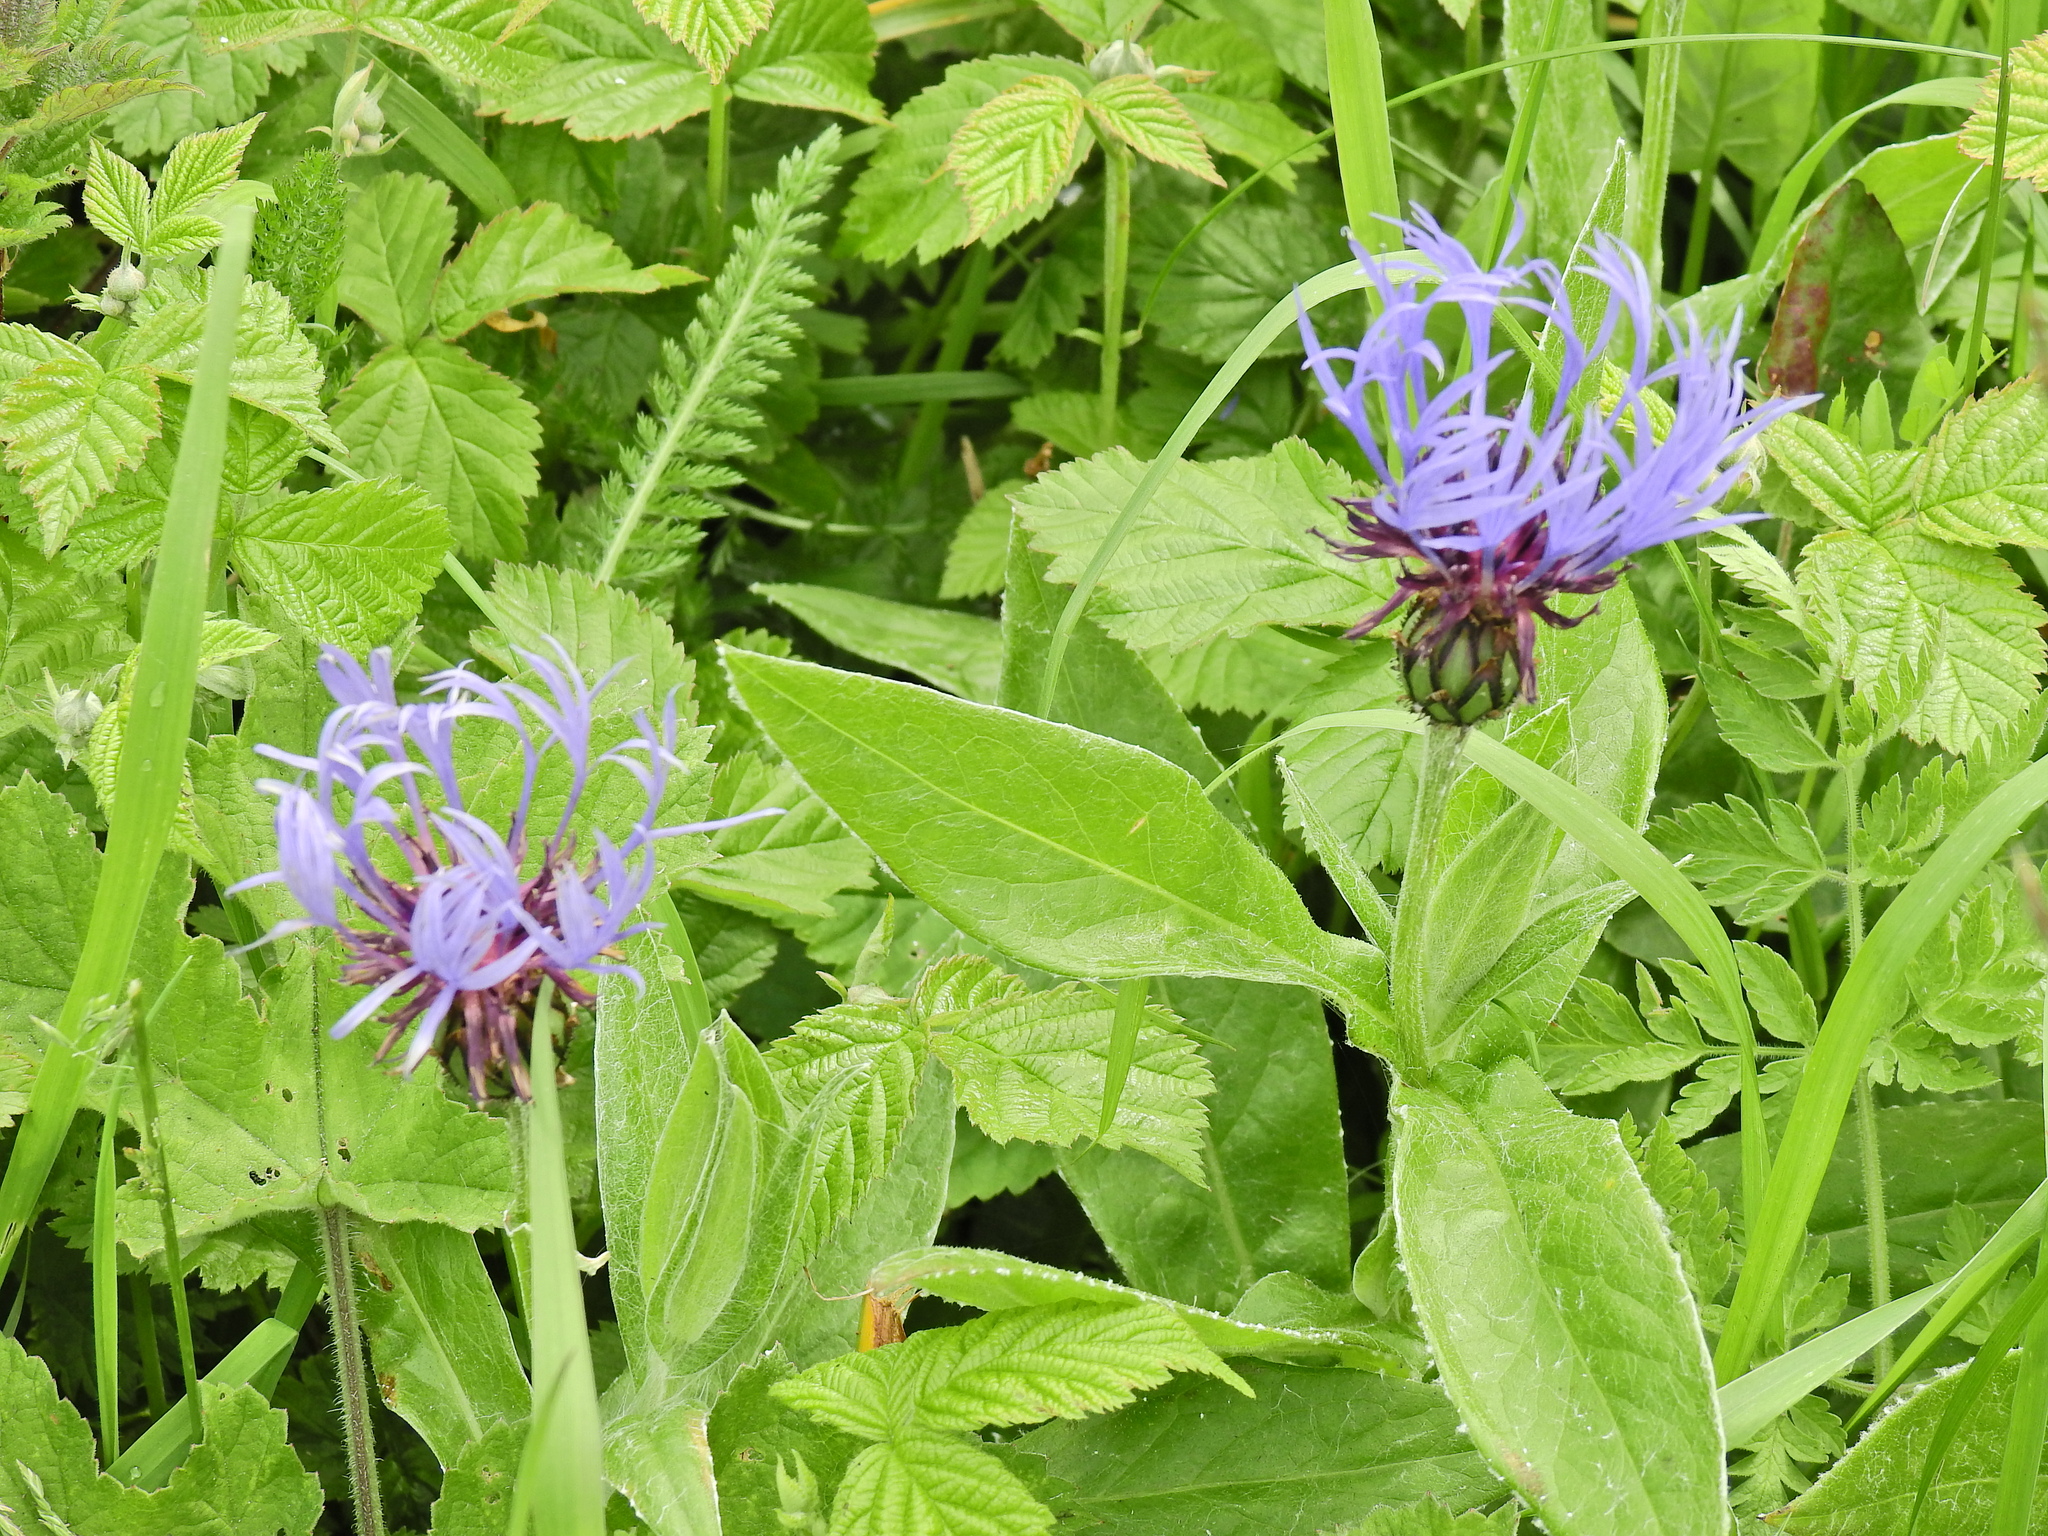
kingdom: Plantae
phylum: Tracheophyta
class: Magnoliopsida
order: Asterales
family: Asteraceae
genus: Centaurea
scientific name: Centaurea montana
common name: Perennial cornflower
